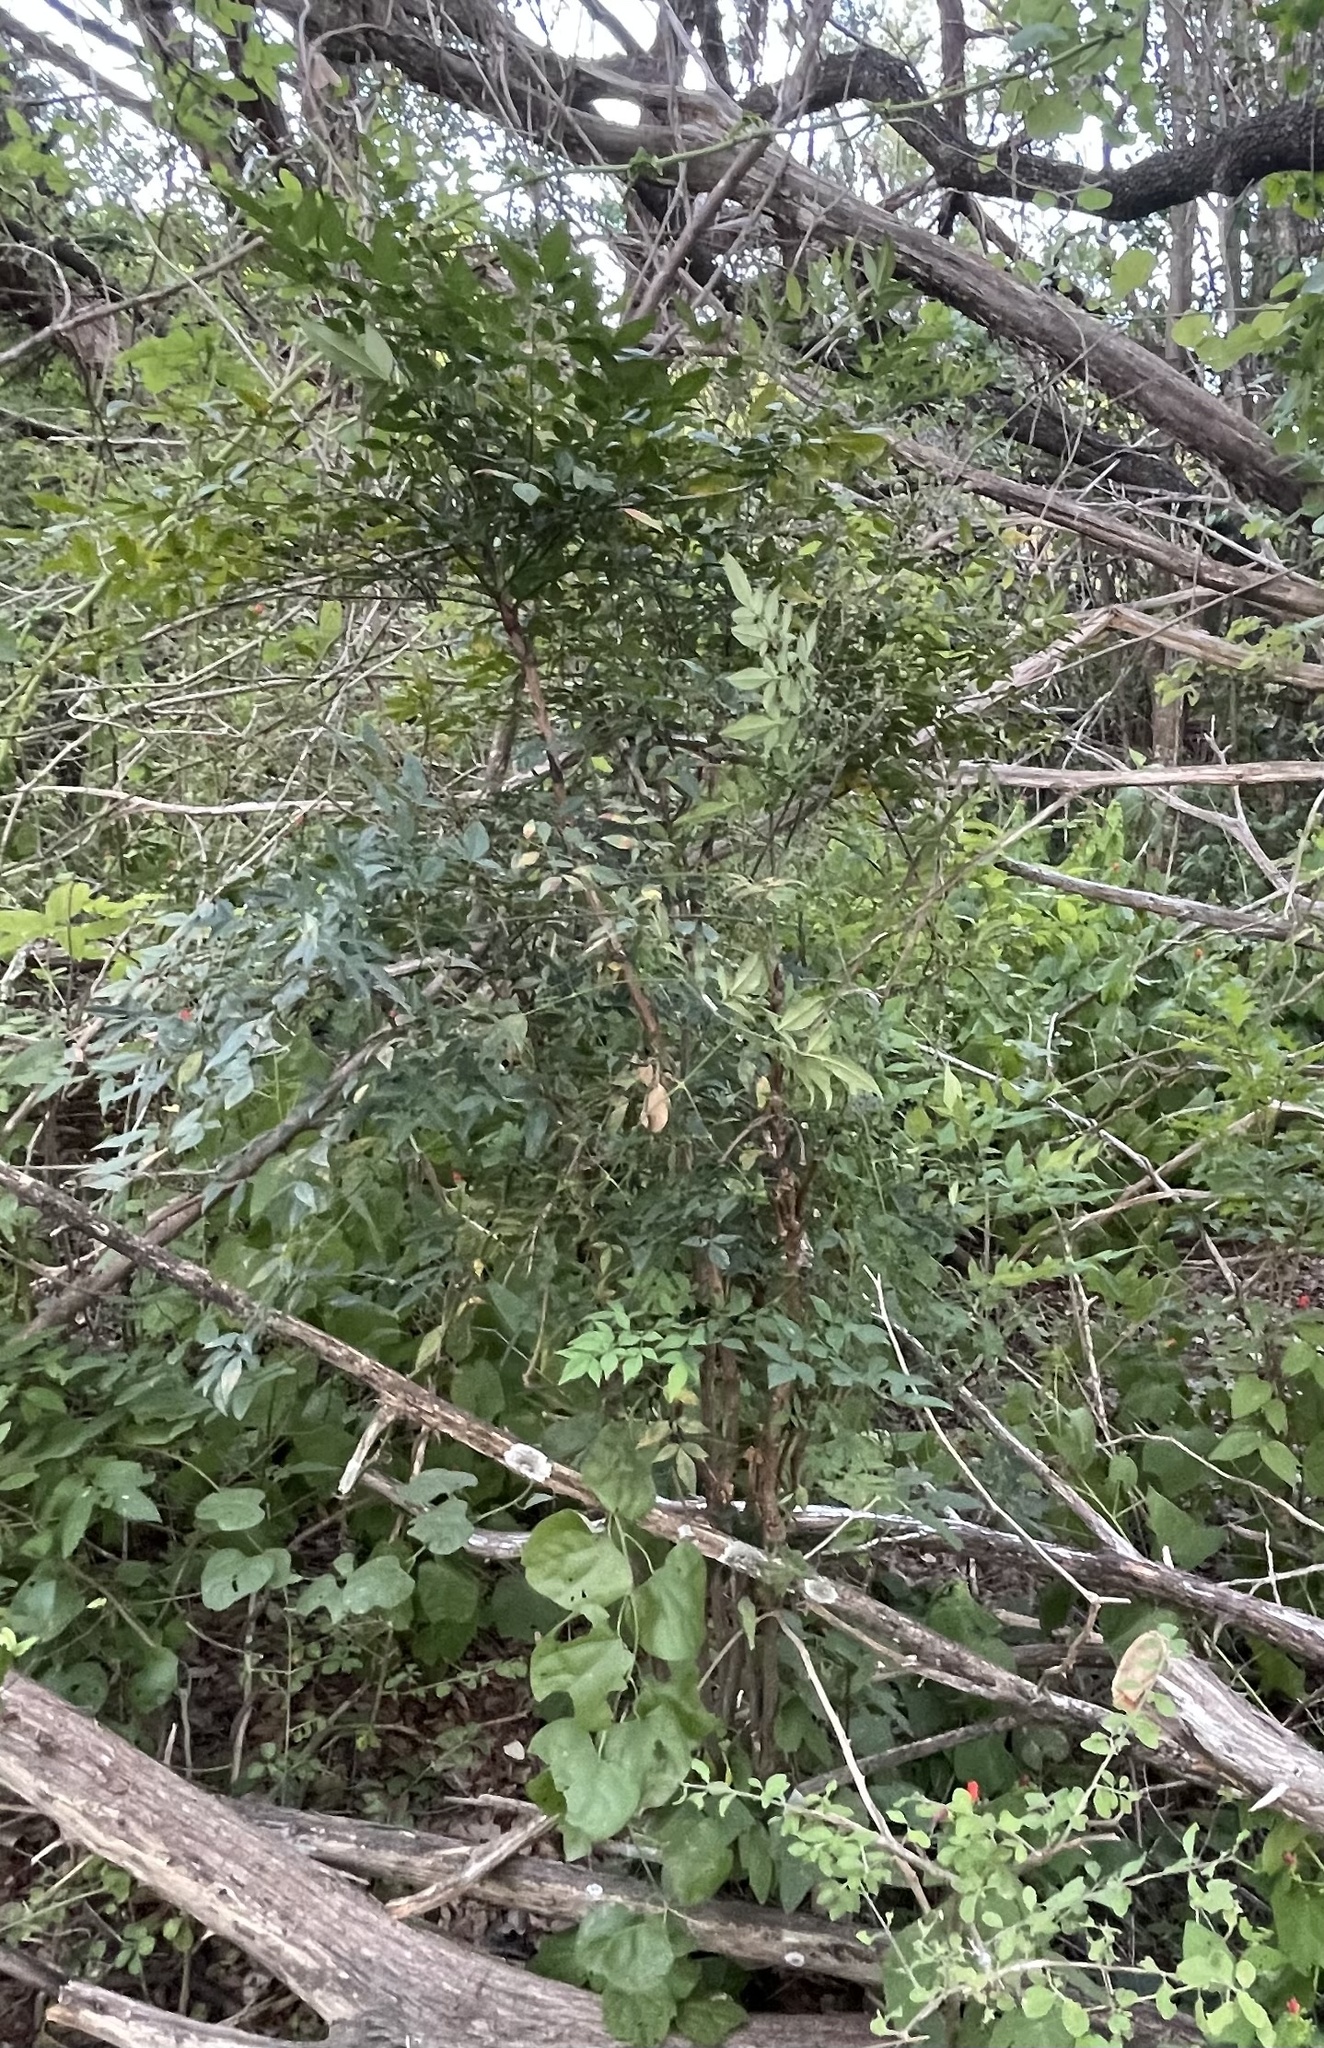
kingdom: Plantae
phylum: Tracheophyta
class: Magnoliopsida
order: Ranunculales
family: Berberidaceae
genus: Nandina
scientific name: Nandina domestica
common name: Sacred bamboo
